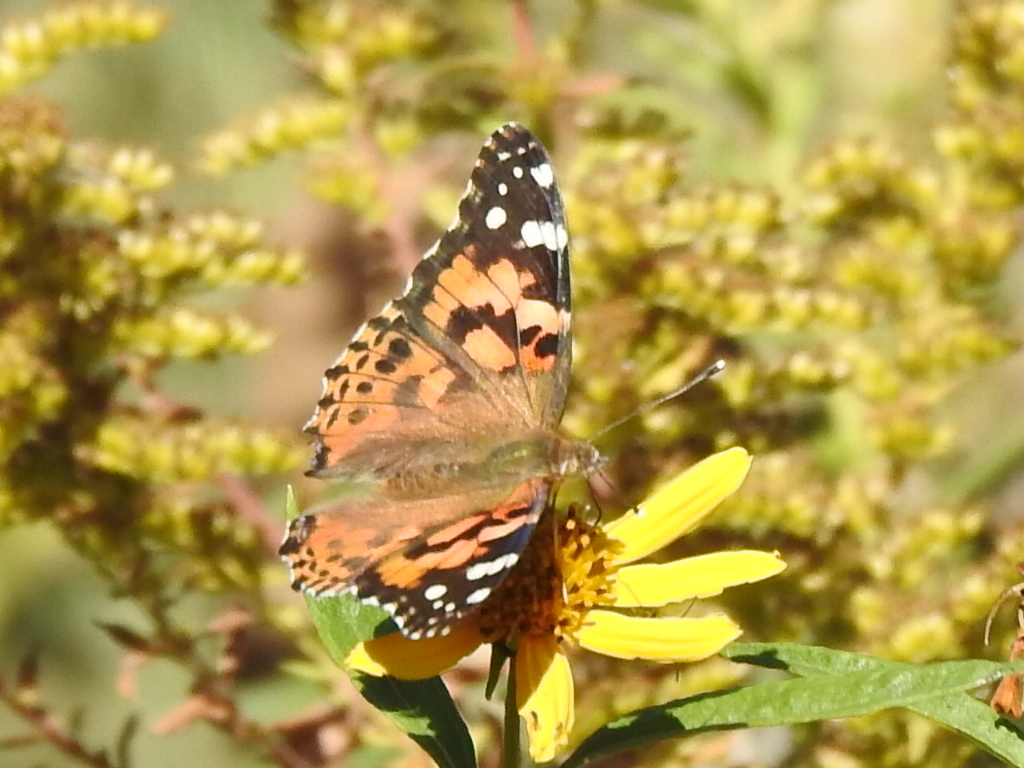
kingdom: Animalia
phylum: Arthropoda
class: Insecta
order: Lepidoptera
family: Nymphalidae
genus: Vanessa
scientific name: Vanessa cardui
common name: Painted lady
